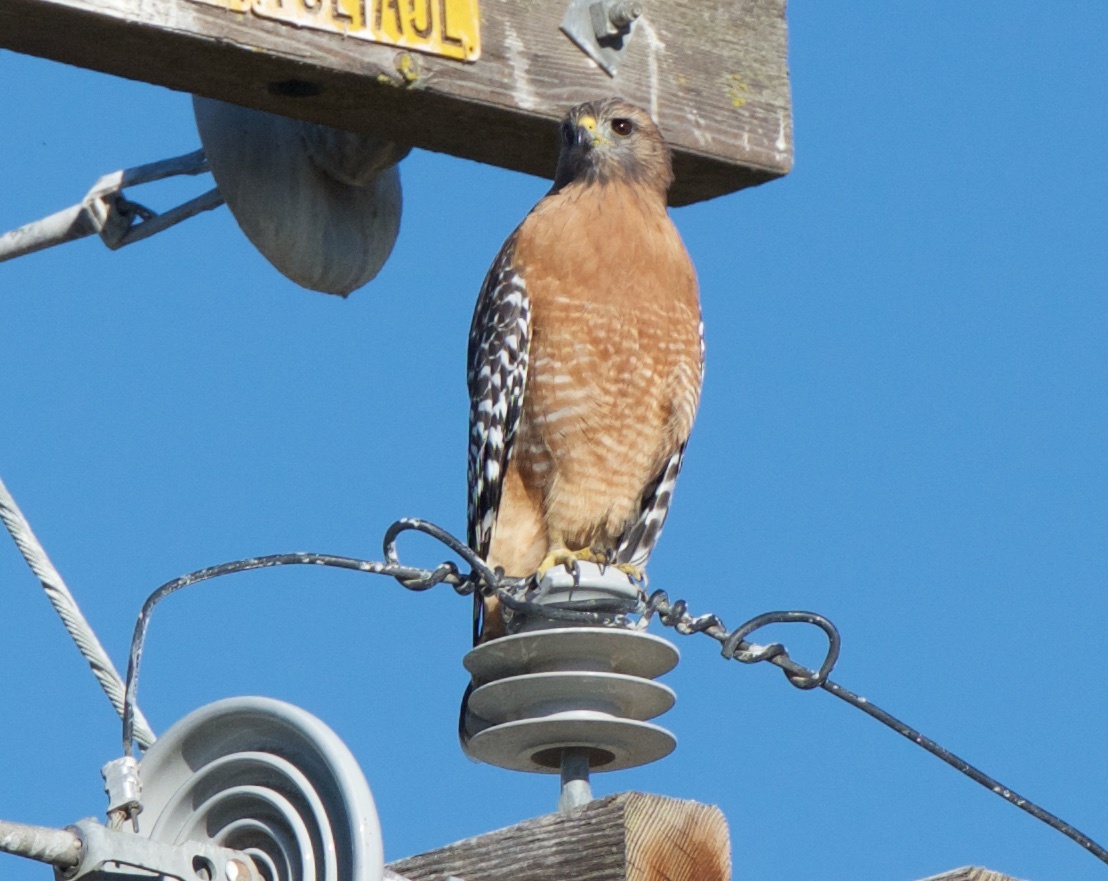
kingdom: Animalia
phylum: Chordata
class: Aves
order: Accipitriformes
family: Accipitridae
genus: Buteo
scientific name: Buteo lineatus
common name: Red-shouldered hawk
